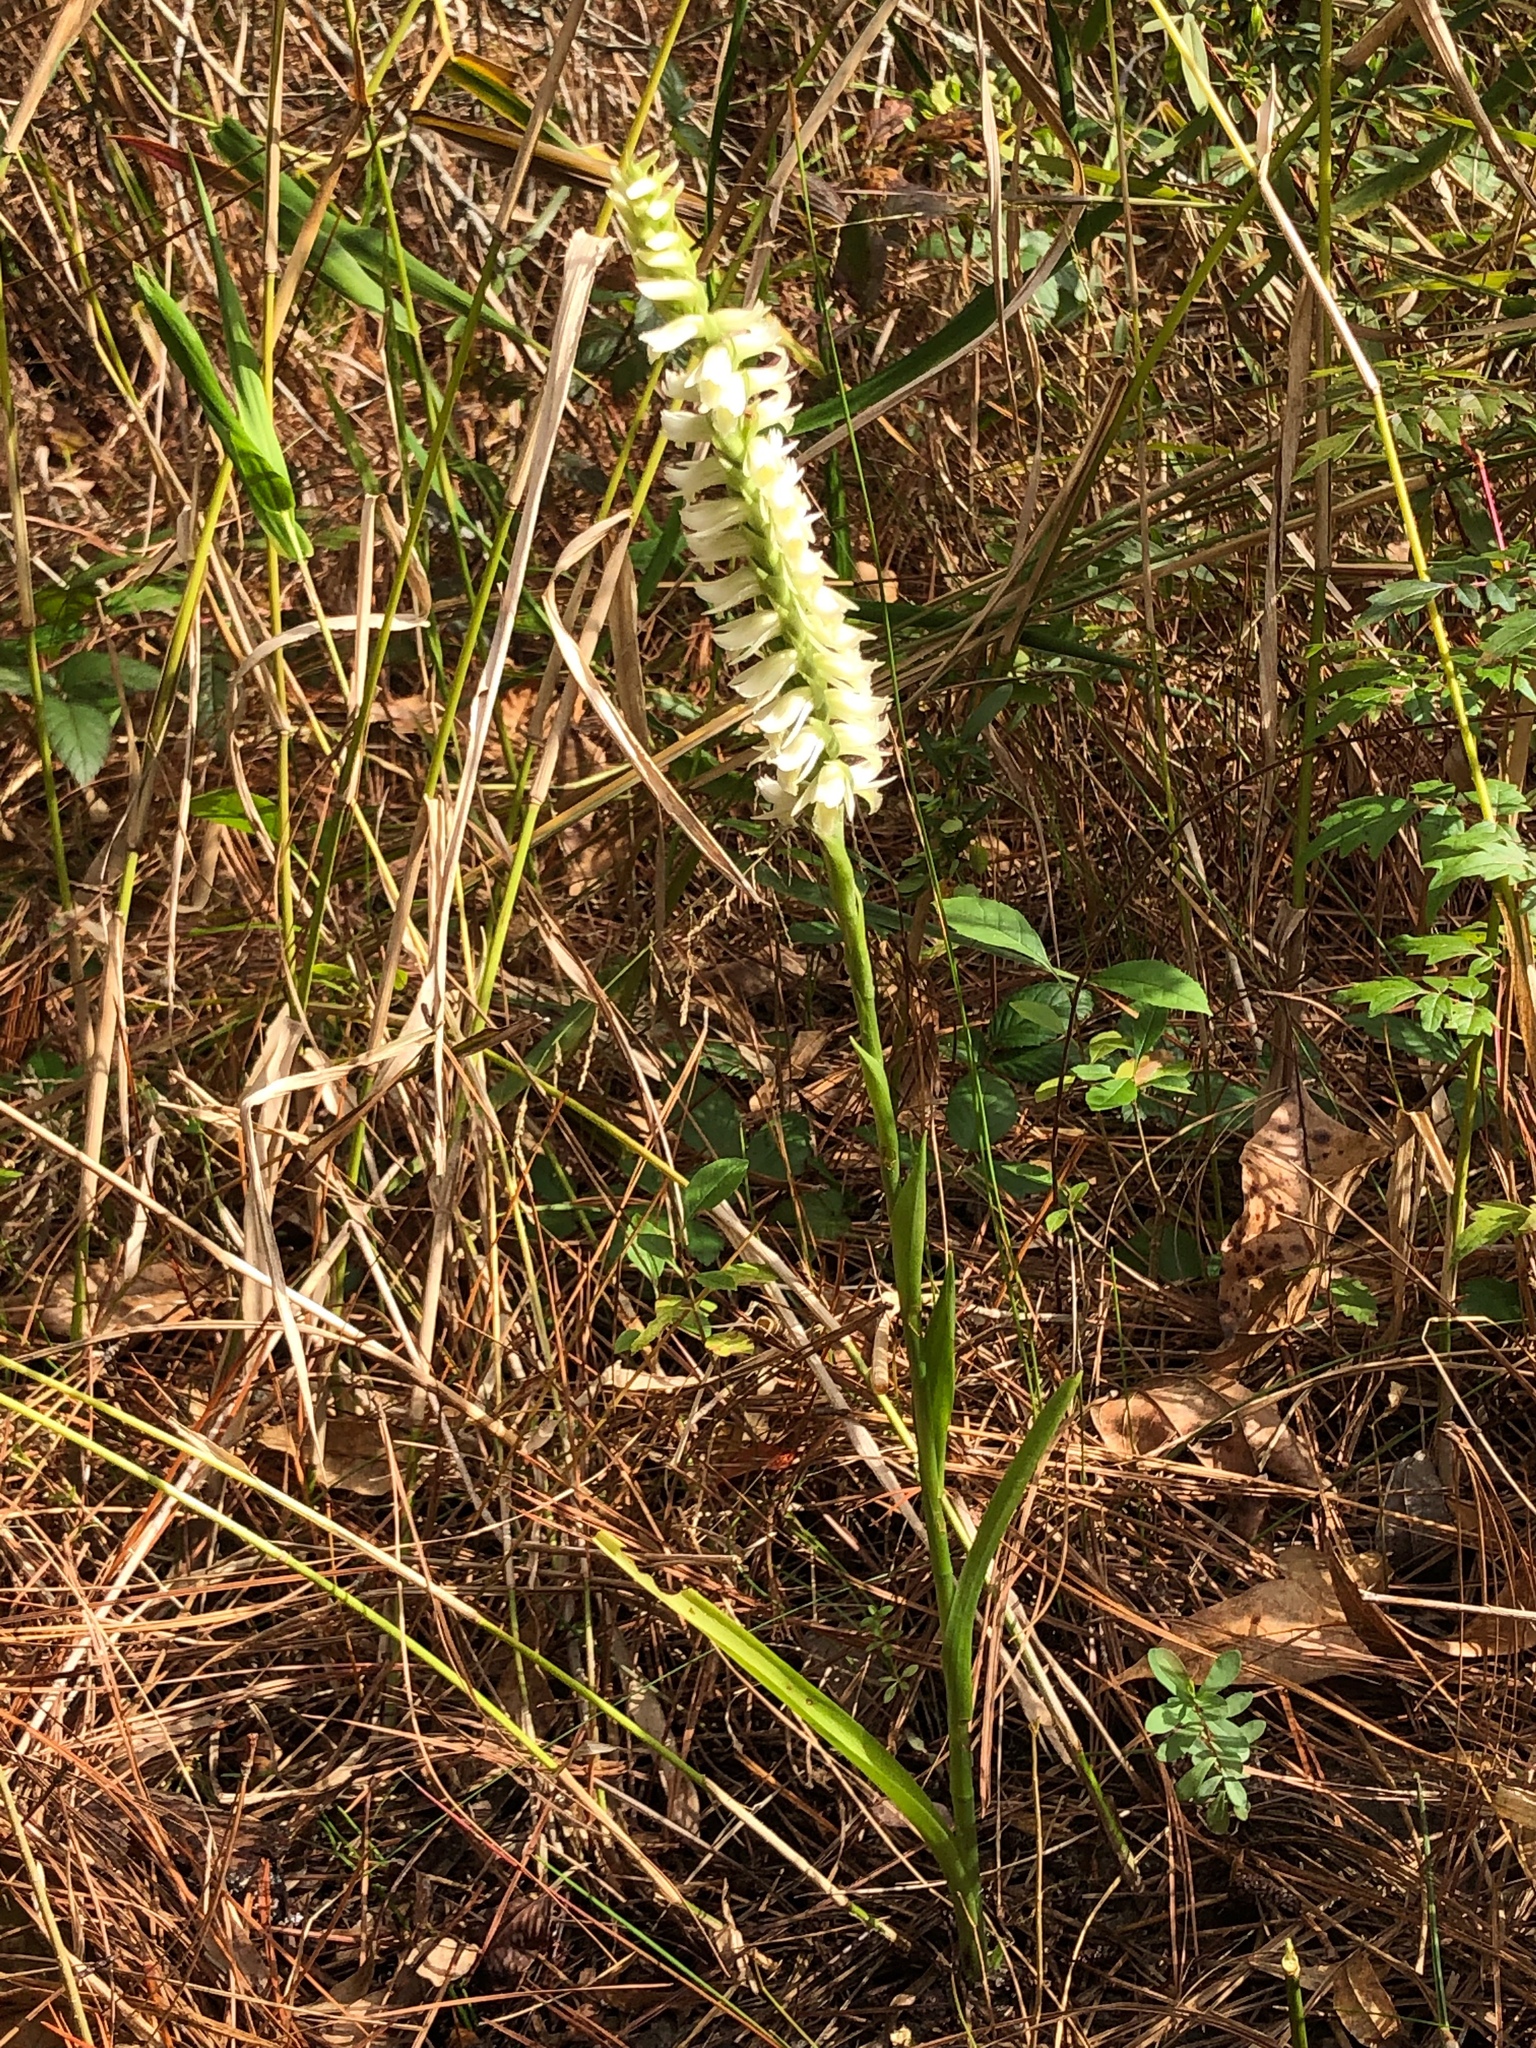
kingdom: Plantae
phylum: Tracheophyta
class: Liliopsida
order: Asparagales
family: Orchidaceae
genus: Spiranthes
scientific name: Spiranthes odorata
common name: Marsh ladies'-tresses
